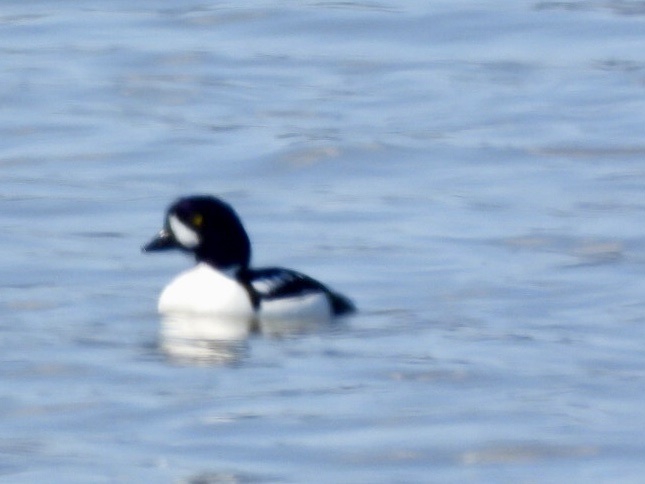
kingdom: Animalia
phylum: Chordata
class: Aves
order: Anseriformes
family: Anatidae
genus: Bucephala
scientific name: Bucephala islandica
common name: Barrow's goldeneye
